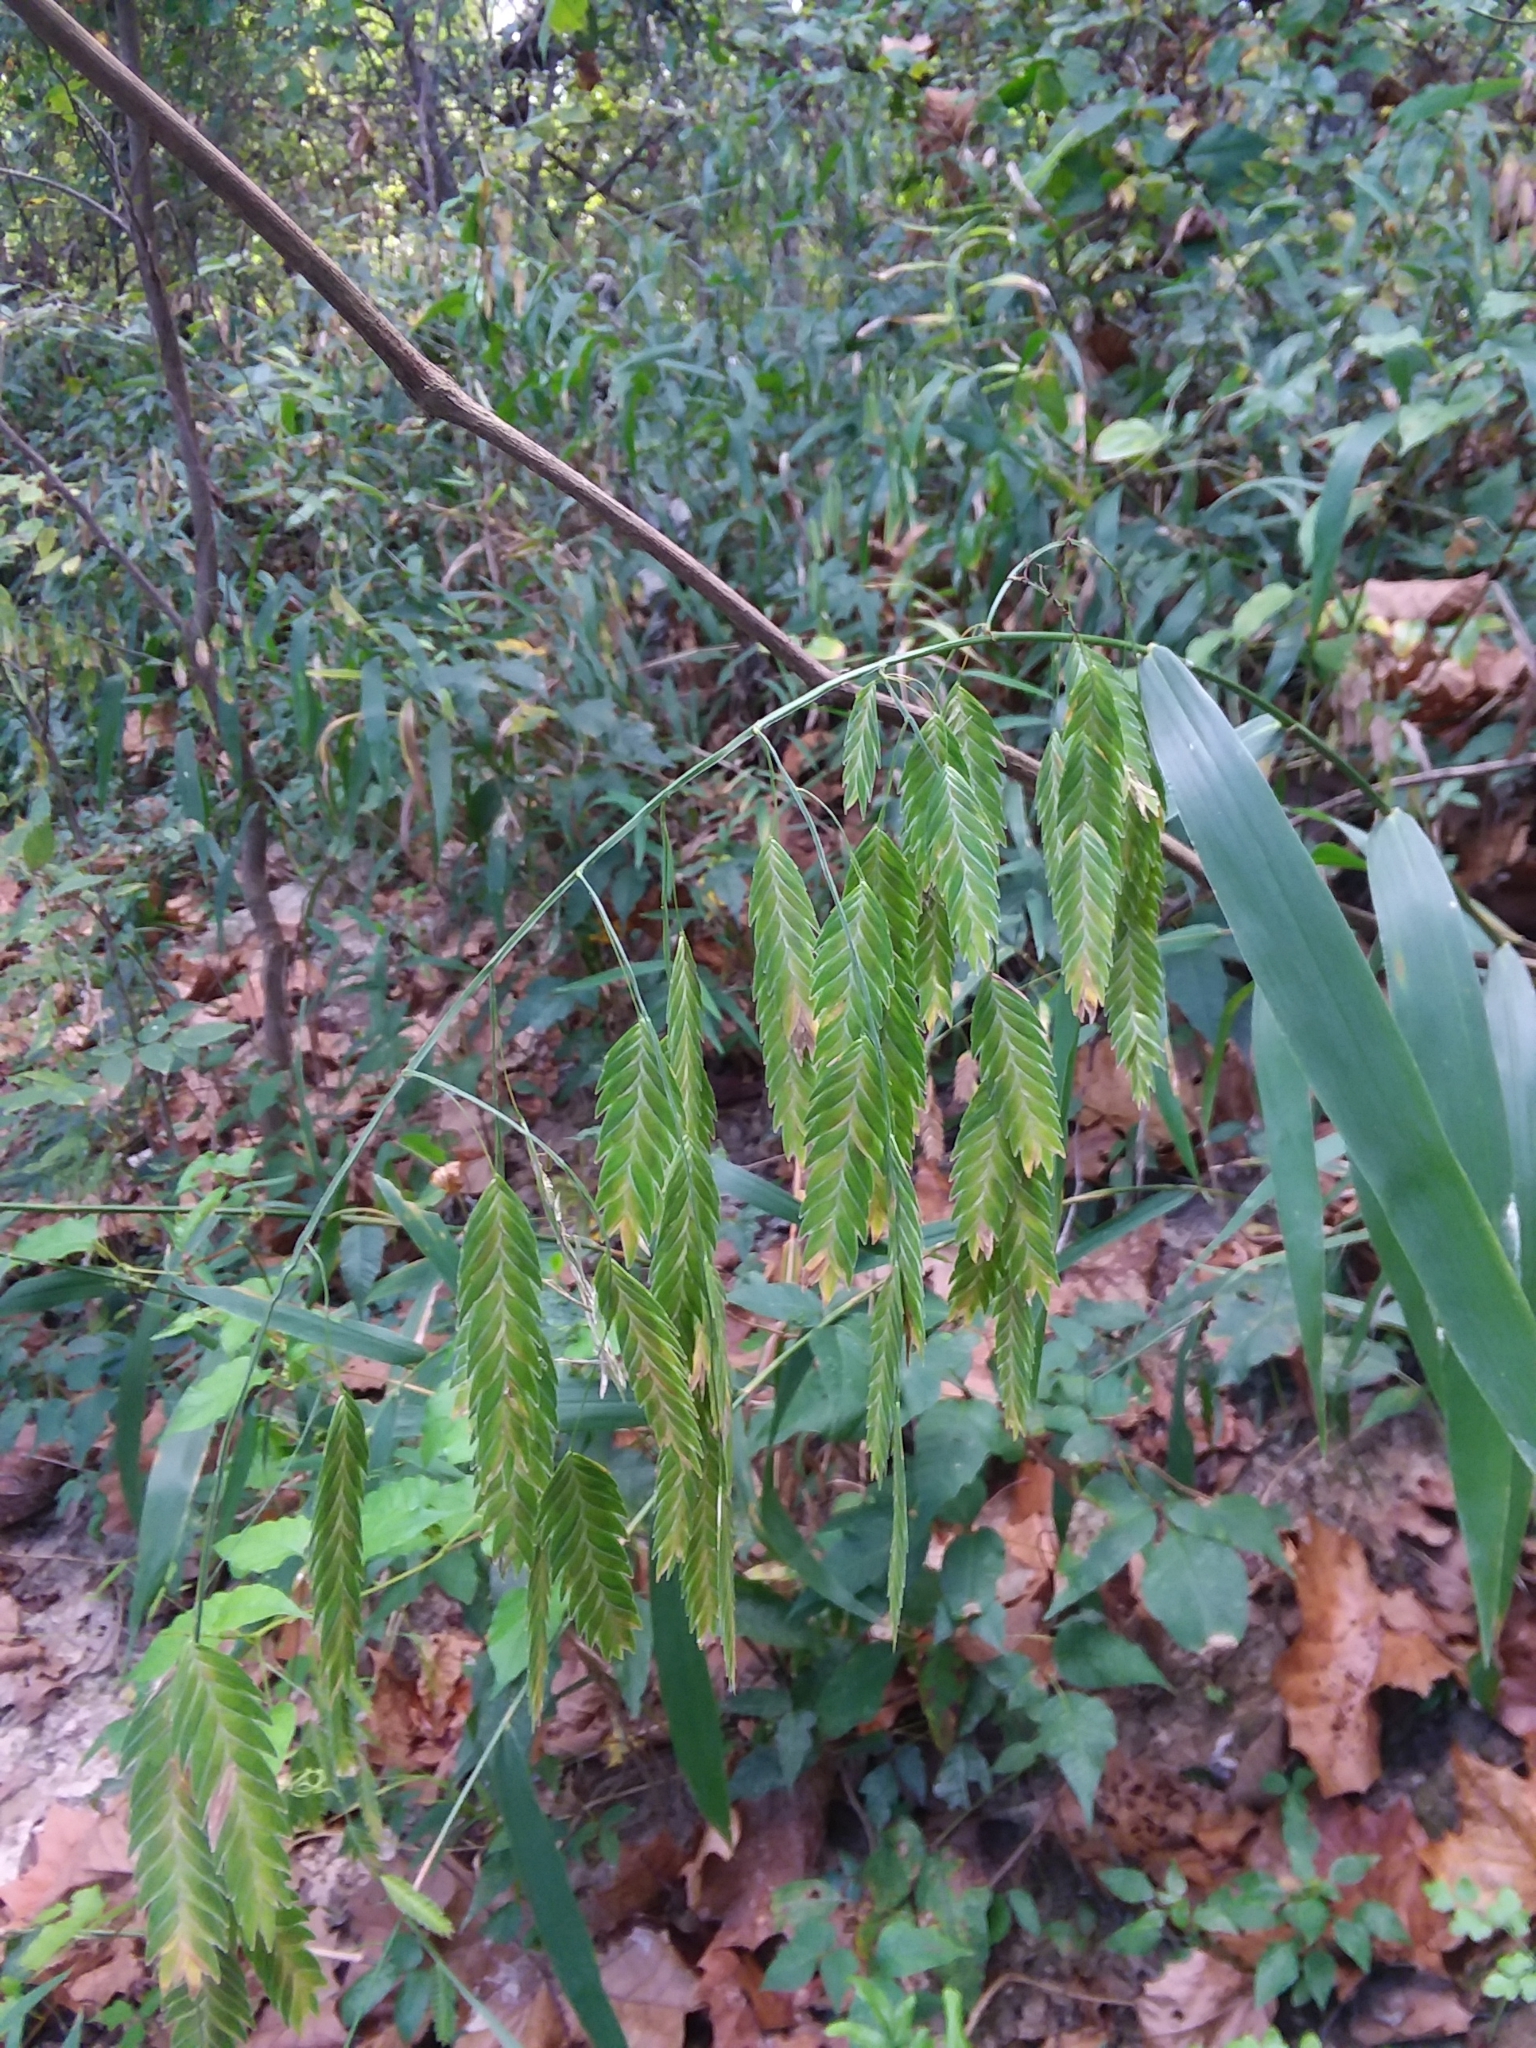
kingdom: Plantae
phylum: Tracheophyta
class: Liliopsida
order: Poales
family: Poaceae
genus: Chasmanthium
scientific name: Chasmanthium latifolium
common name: Broad-leaved chasmanthium
